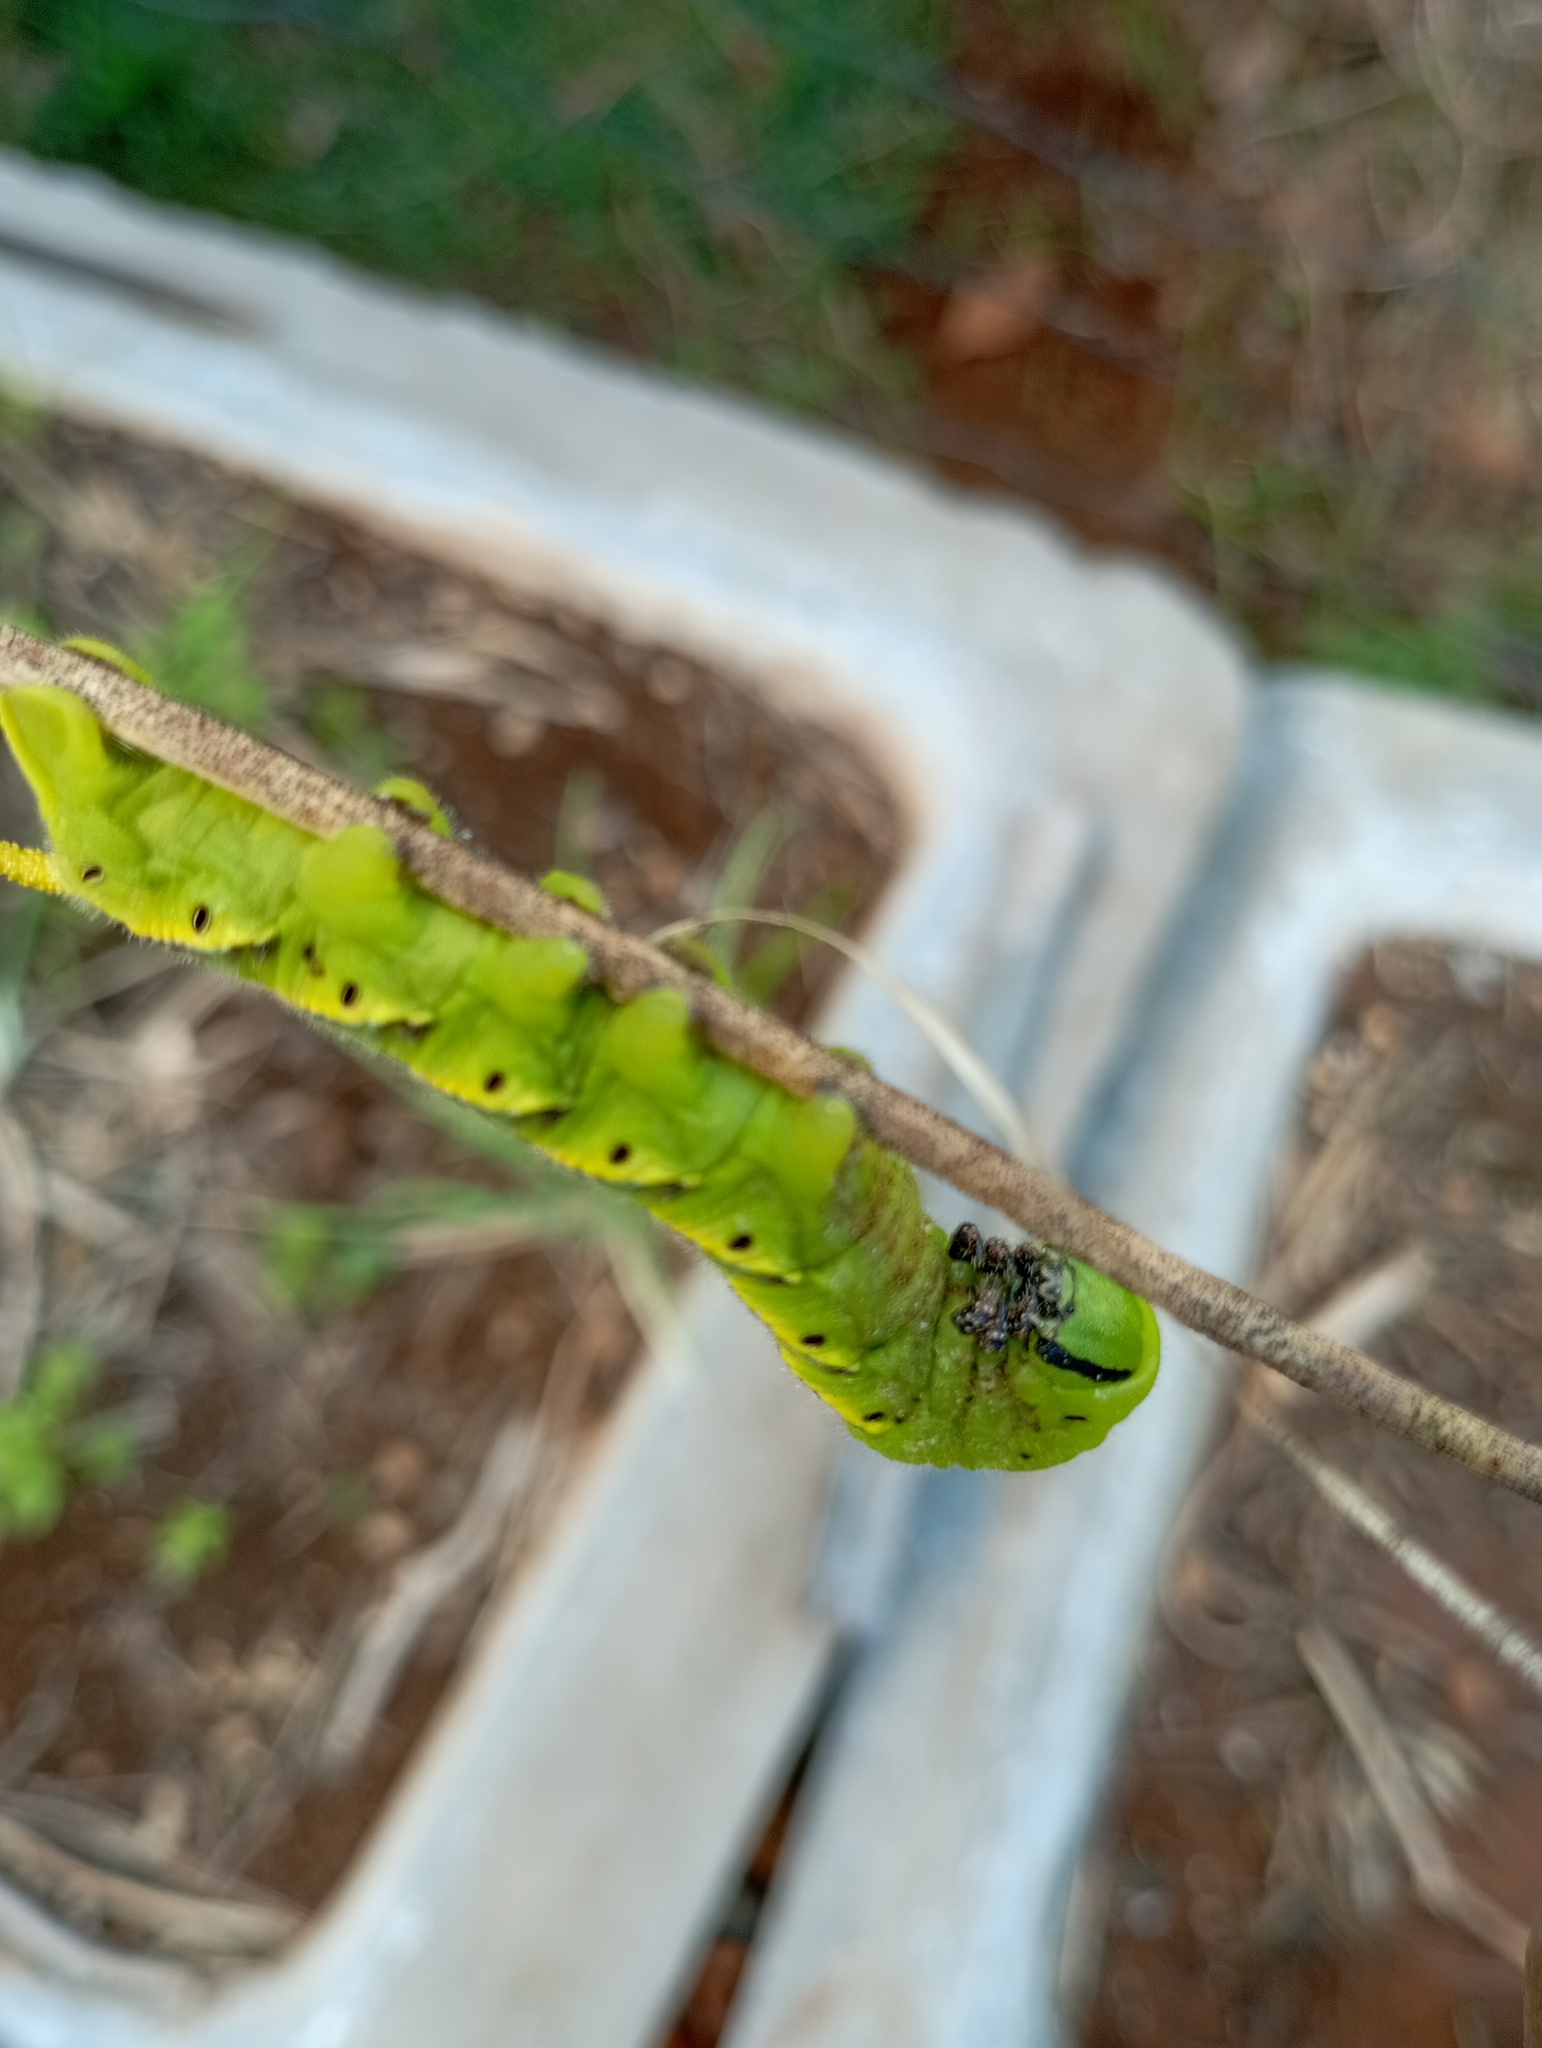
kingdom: Animalia
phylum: Arthropoda
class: Insecta
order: Lepidoptera
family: Sphingidae
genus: Acherontia
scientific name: Acherontia styx
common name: Death's-head hawk moth
